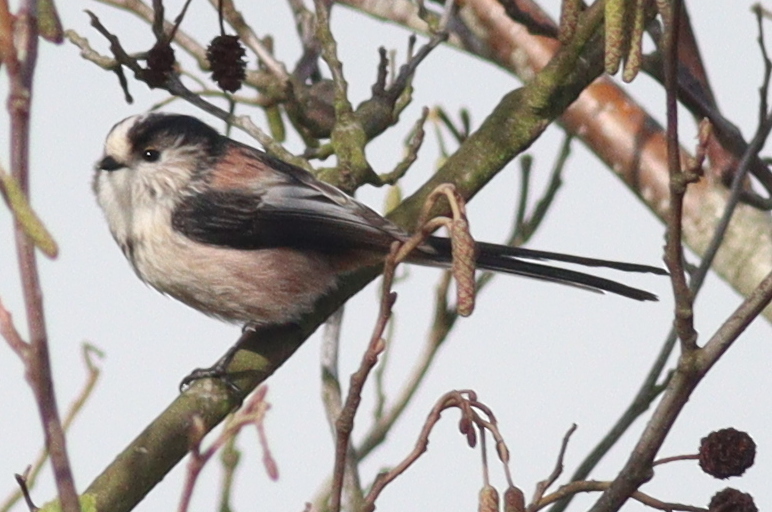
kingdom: Animalia
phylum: Chordata
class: Aves
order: Passeriformes
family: Aegithalidae
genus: Aegithalos
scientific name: Aegithalos caudatus
